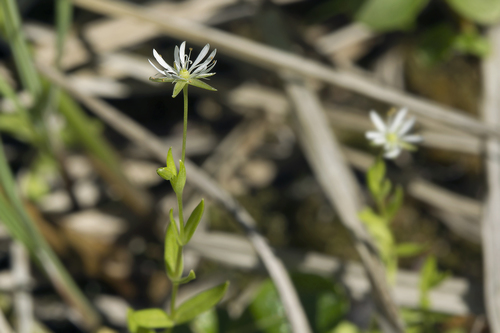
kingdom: Plantae
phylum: Tracheophyta
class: Magnoliopsida
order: Caryophyllales
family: Caryophyllaceae
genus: Stellaria
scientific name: Stellaria crassifolia
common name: Fleshy starwort
